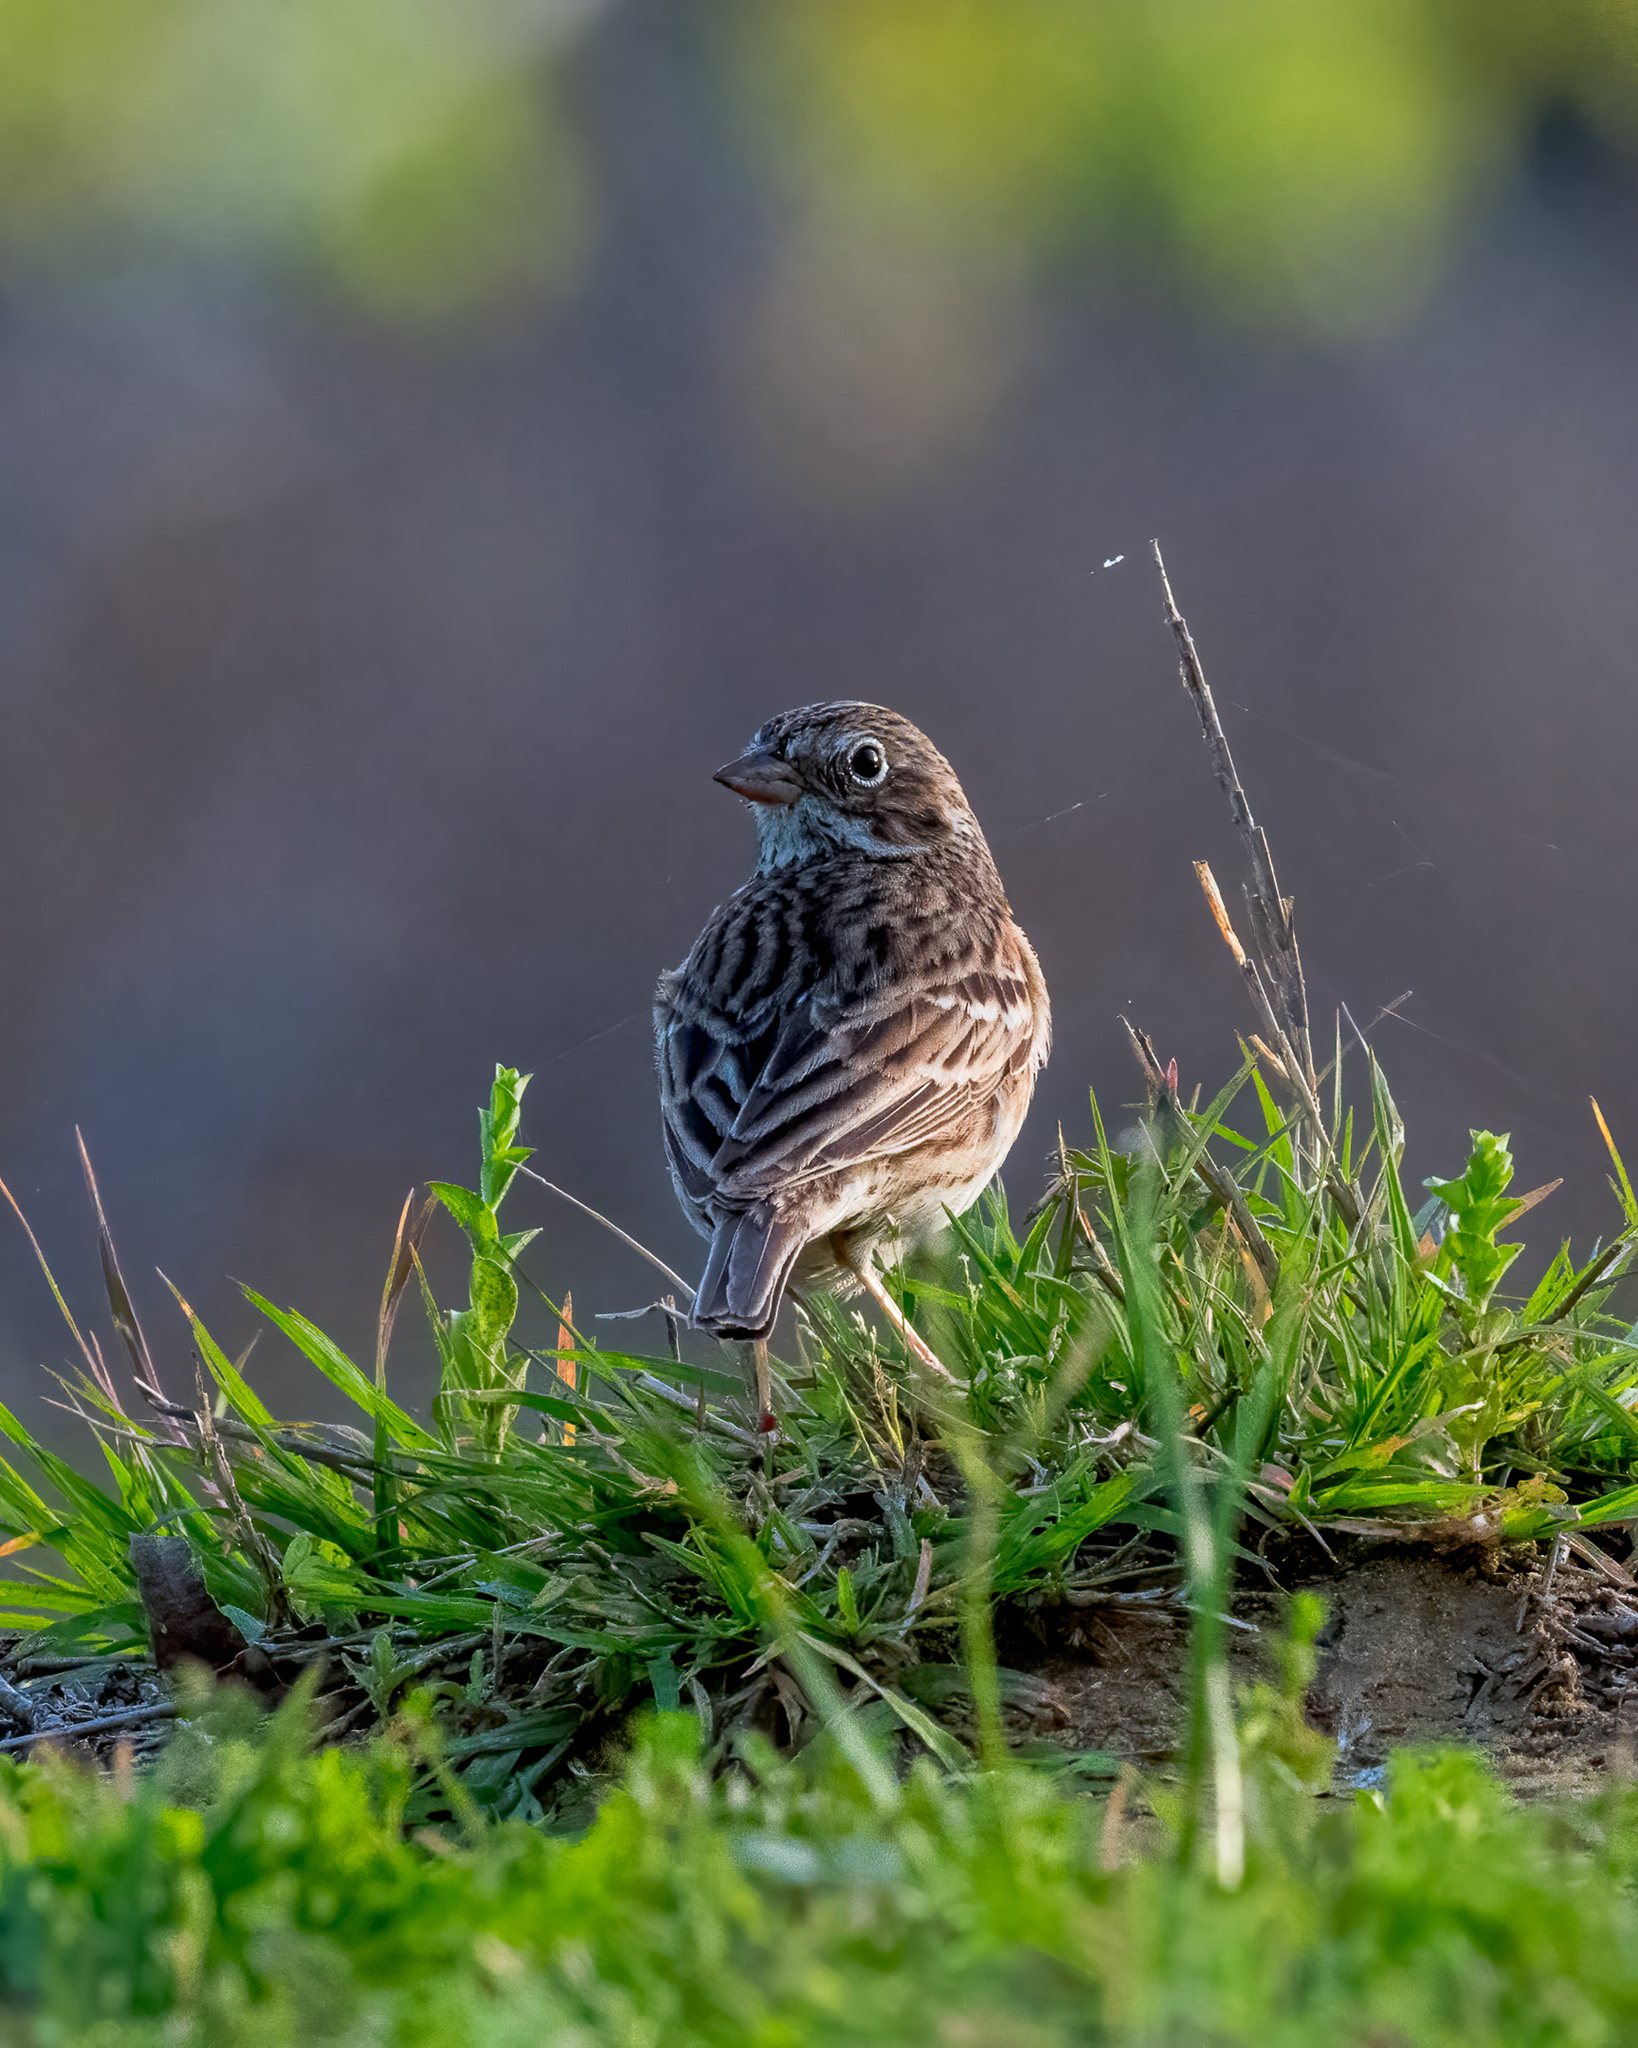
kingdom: Animalia
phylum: Chordata
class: Aves
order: Passeriformes
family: Passerellidae
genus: Pooecetes
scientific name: Pooecetes gramineus
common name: Vesper sparrow
